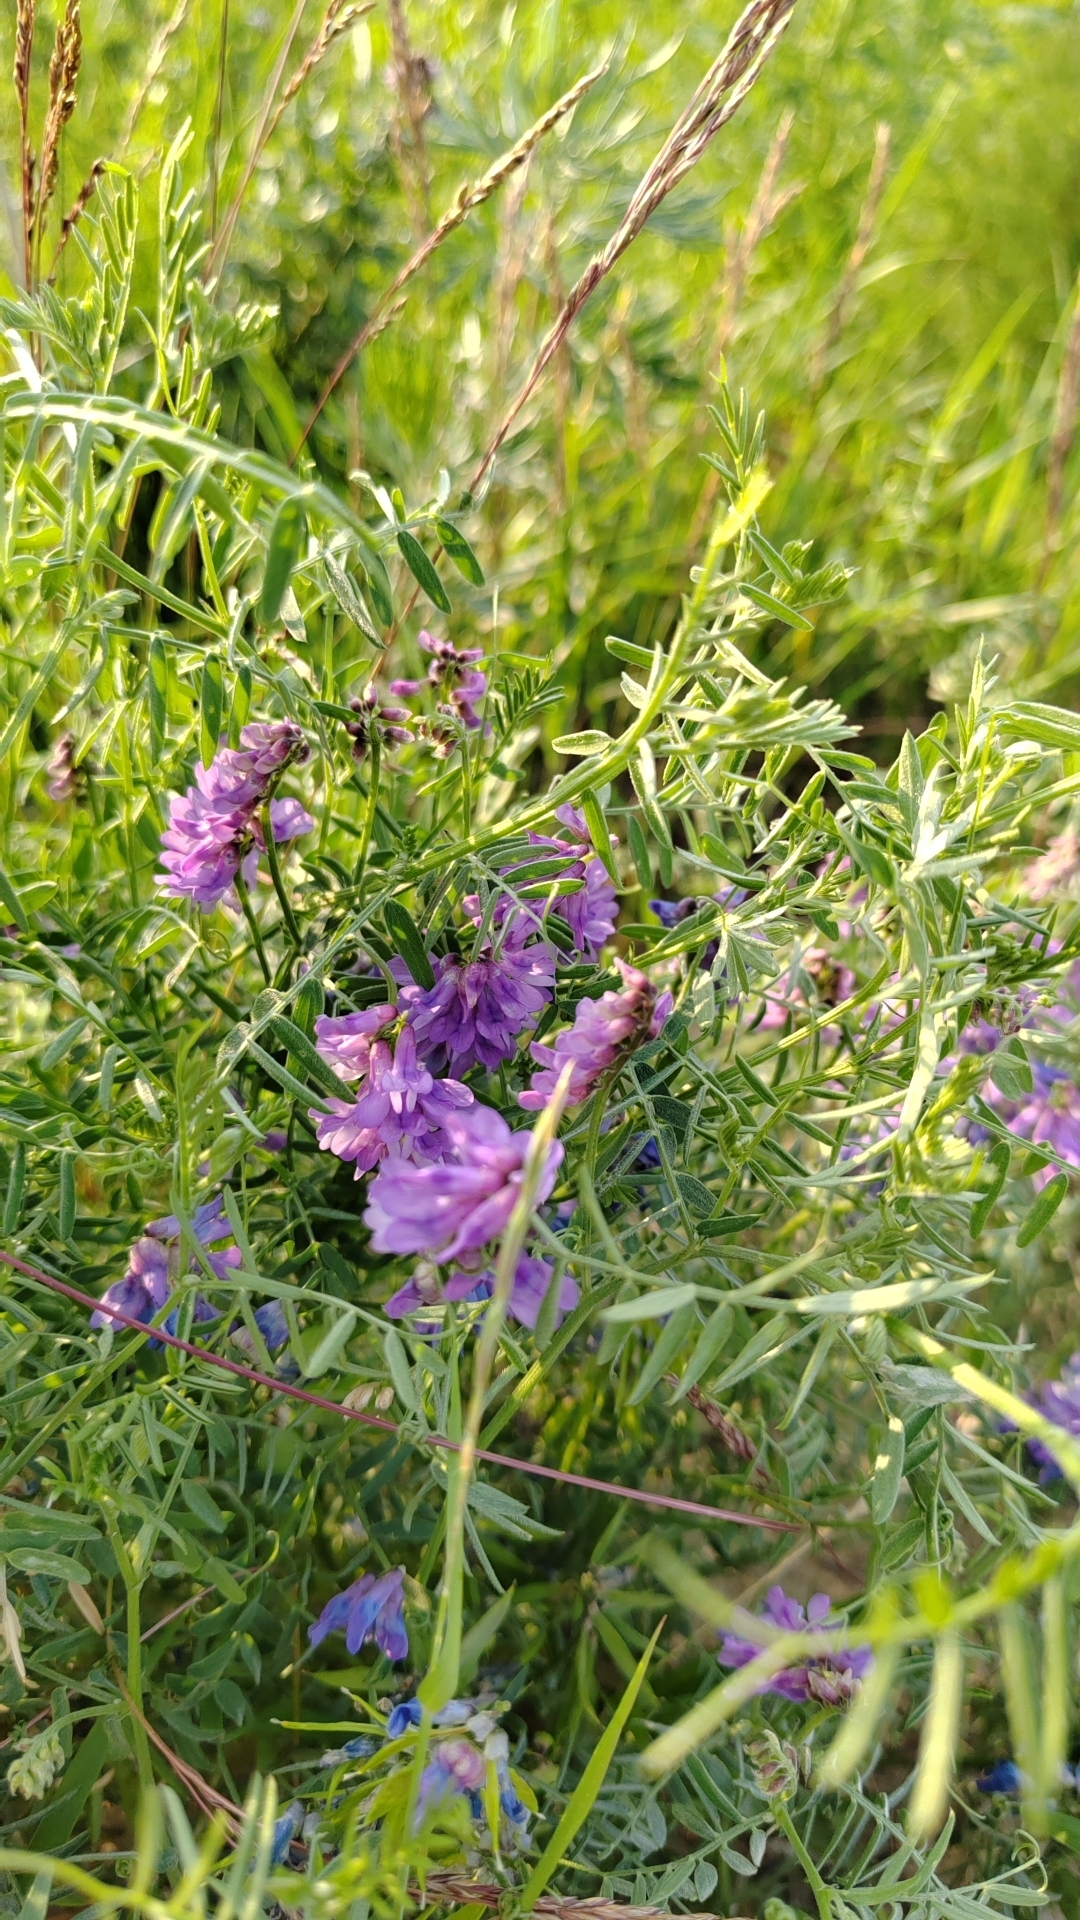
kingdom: Plantae
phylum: Tracheophyta
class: Magnoliopsida
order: Fabales
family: Fabaceae
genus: Vicia
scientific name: Vicia cracca
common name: Bird vetch
